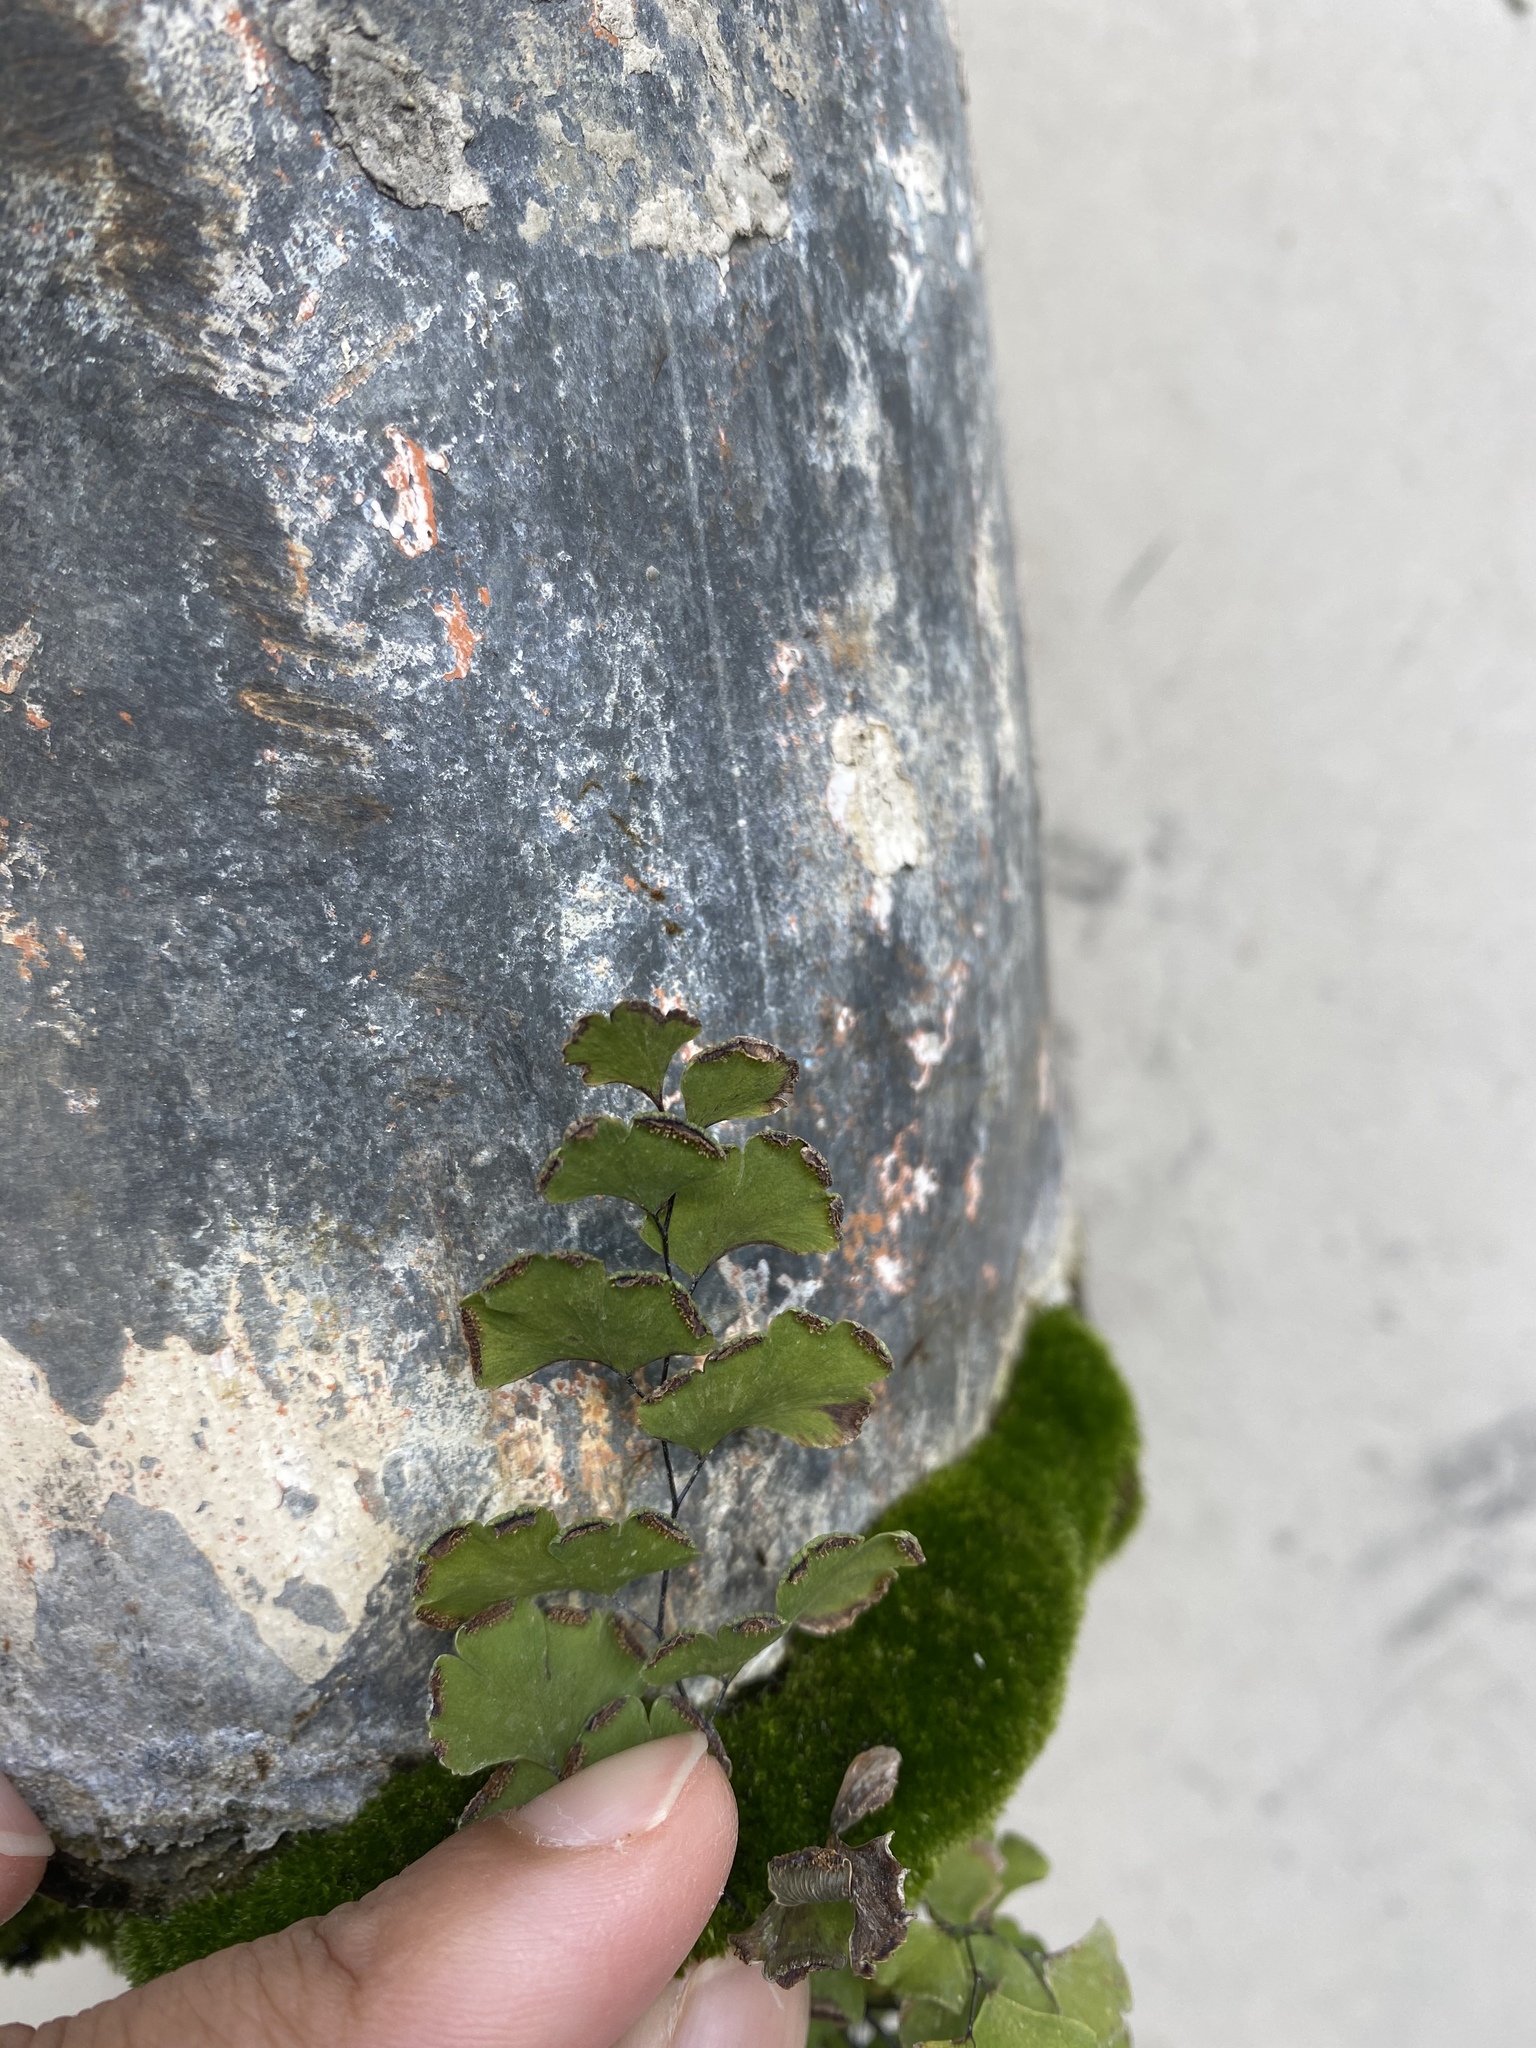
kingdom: Plantae
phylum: Tracheophyta
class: Polypodiopsida
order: Polypodiales
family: Pteridaceae
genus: Adiantum
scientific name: Adiantum capillus-veneris
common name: Maidenhair fern
